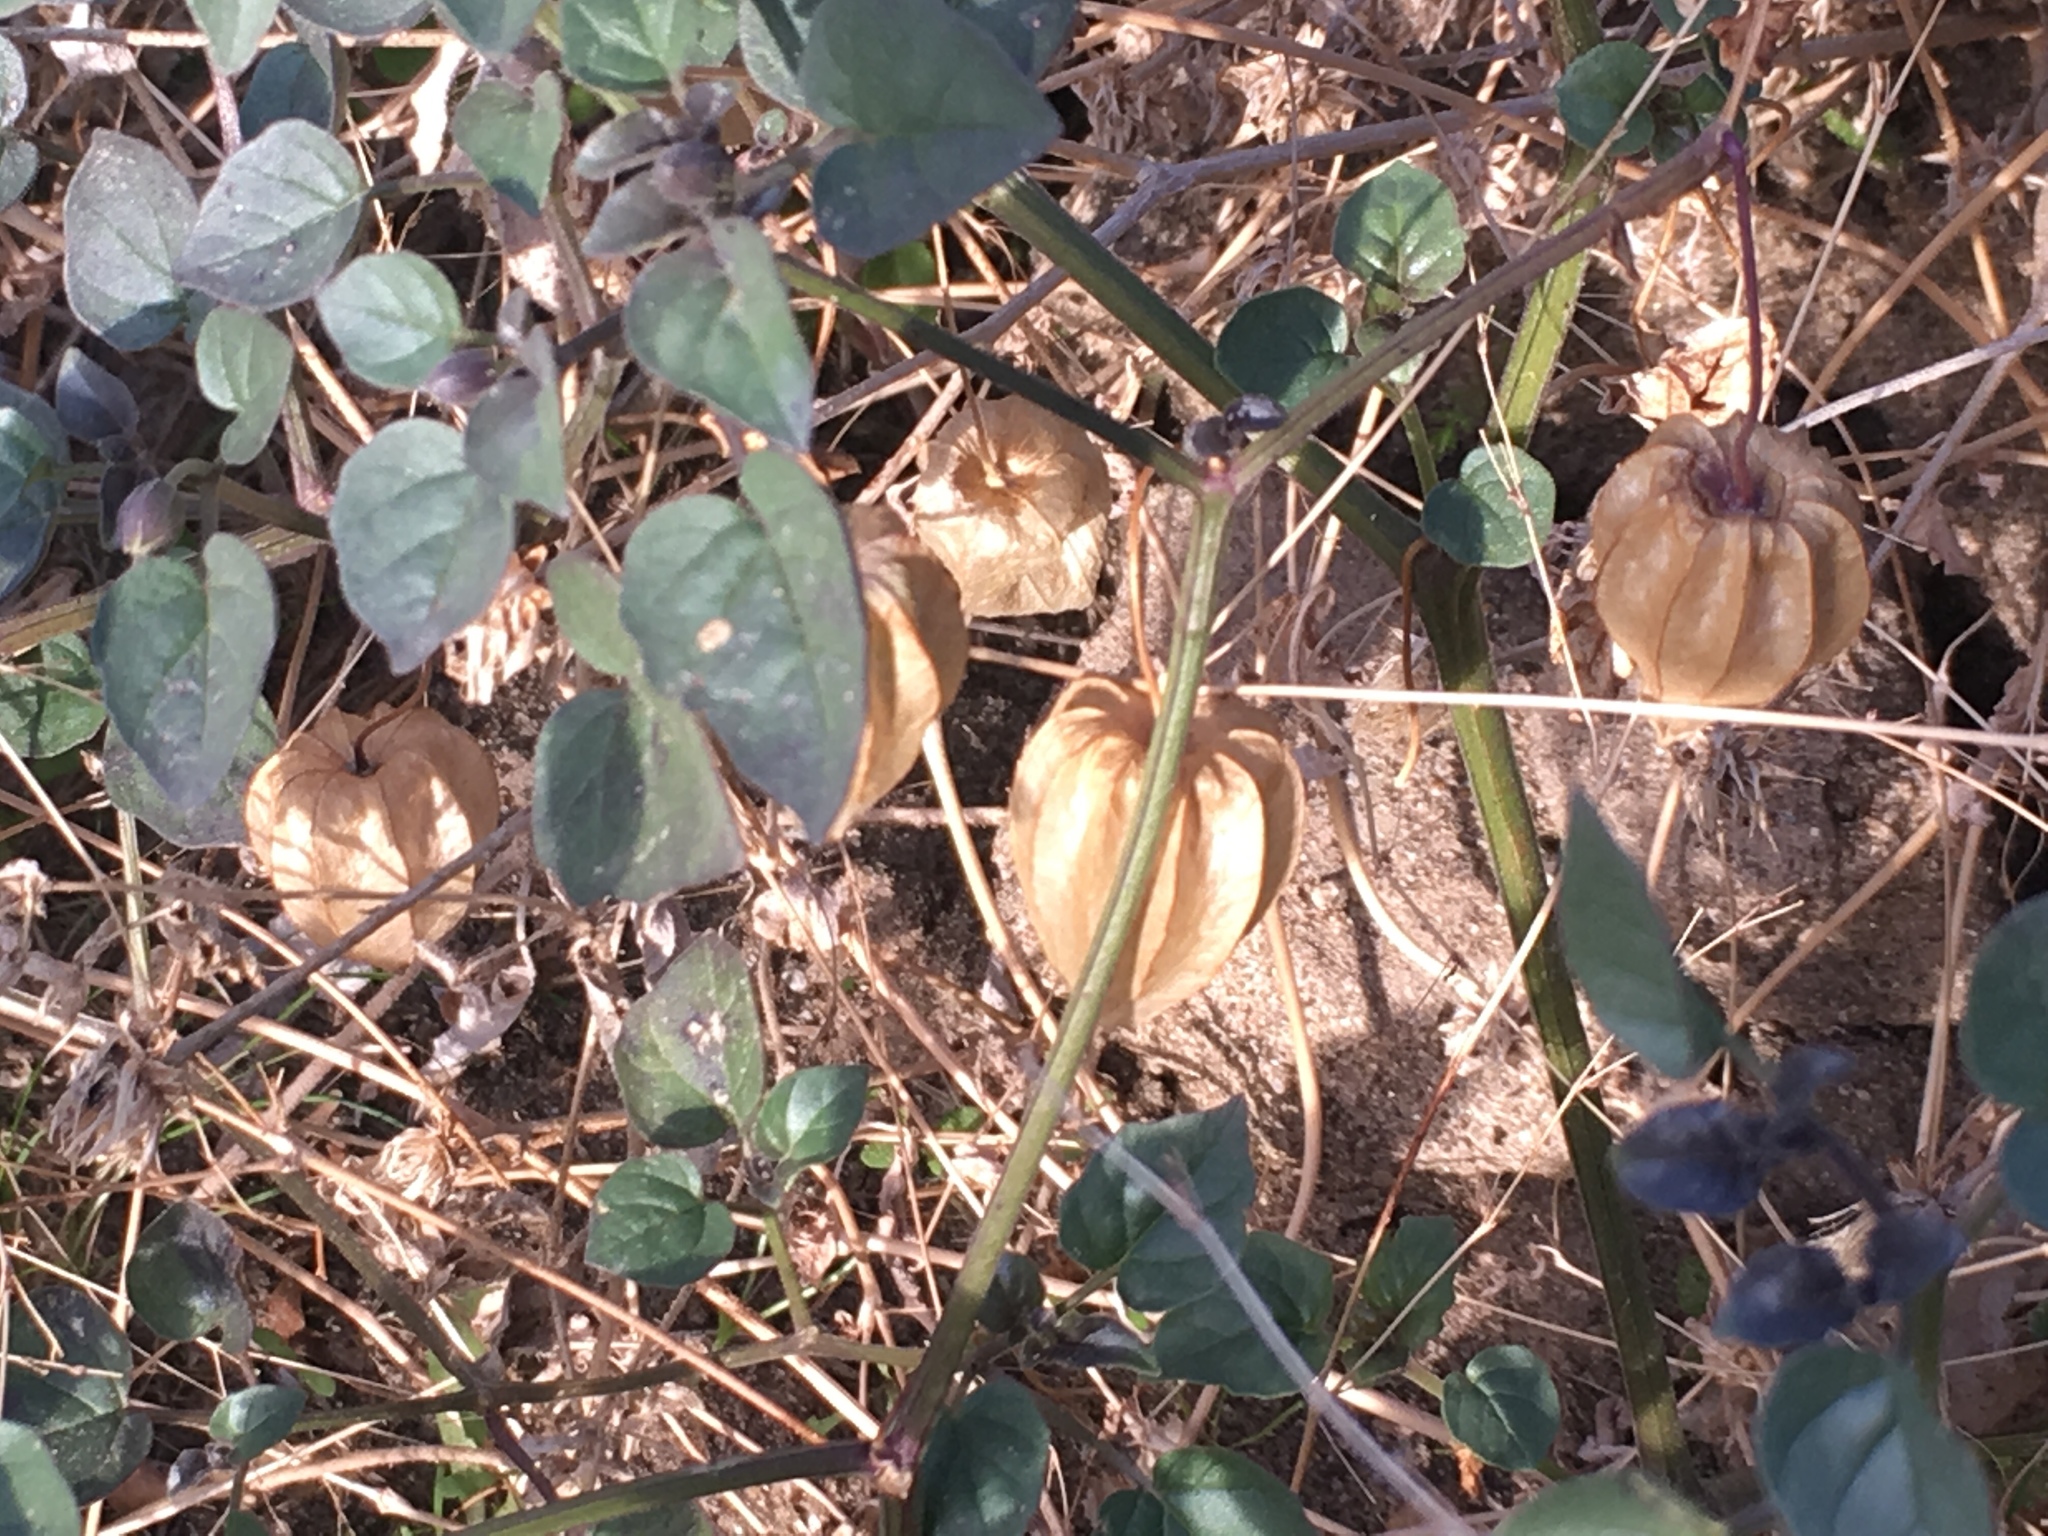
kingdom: Plantae
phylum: Tracheophyta
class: Magnoliopsida
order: Solanales
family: Solanaceae
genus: Physalis
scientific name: Physalis crassifolia
